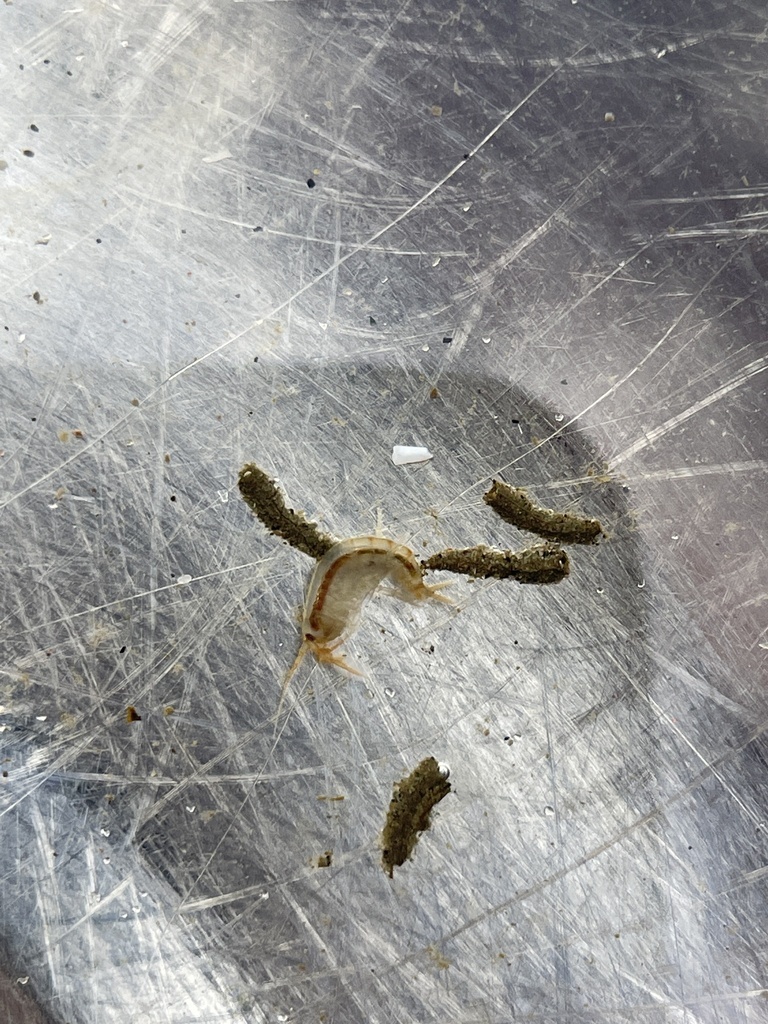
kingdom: Animalia
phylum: Arthropoda
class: Malacostraca
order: Amphipoda
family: Gammaridae
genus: Chaetogammarus
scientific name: Chaetogammarus ischnus
